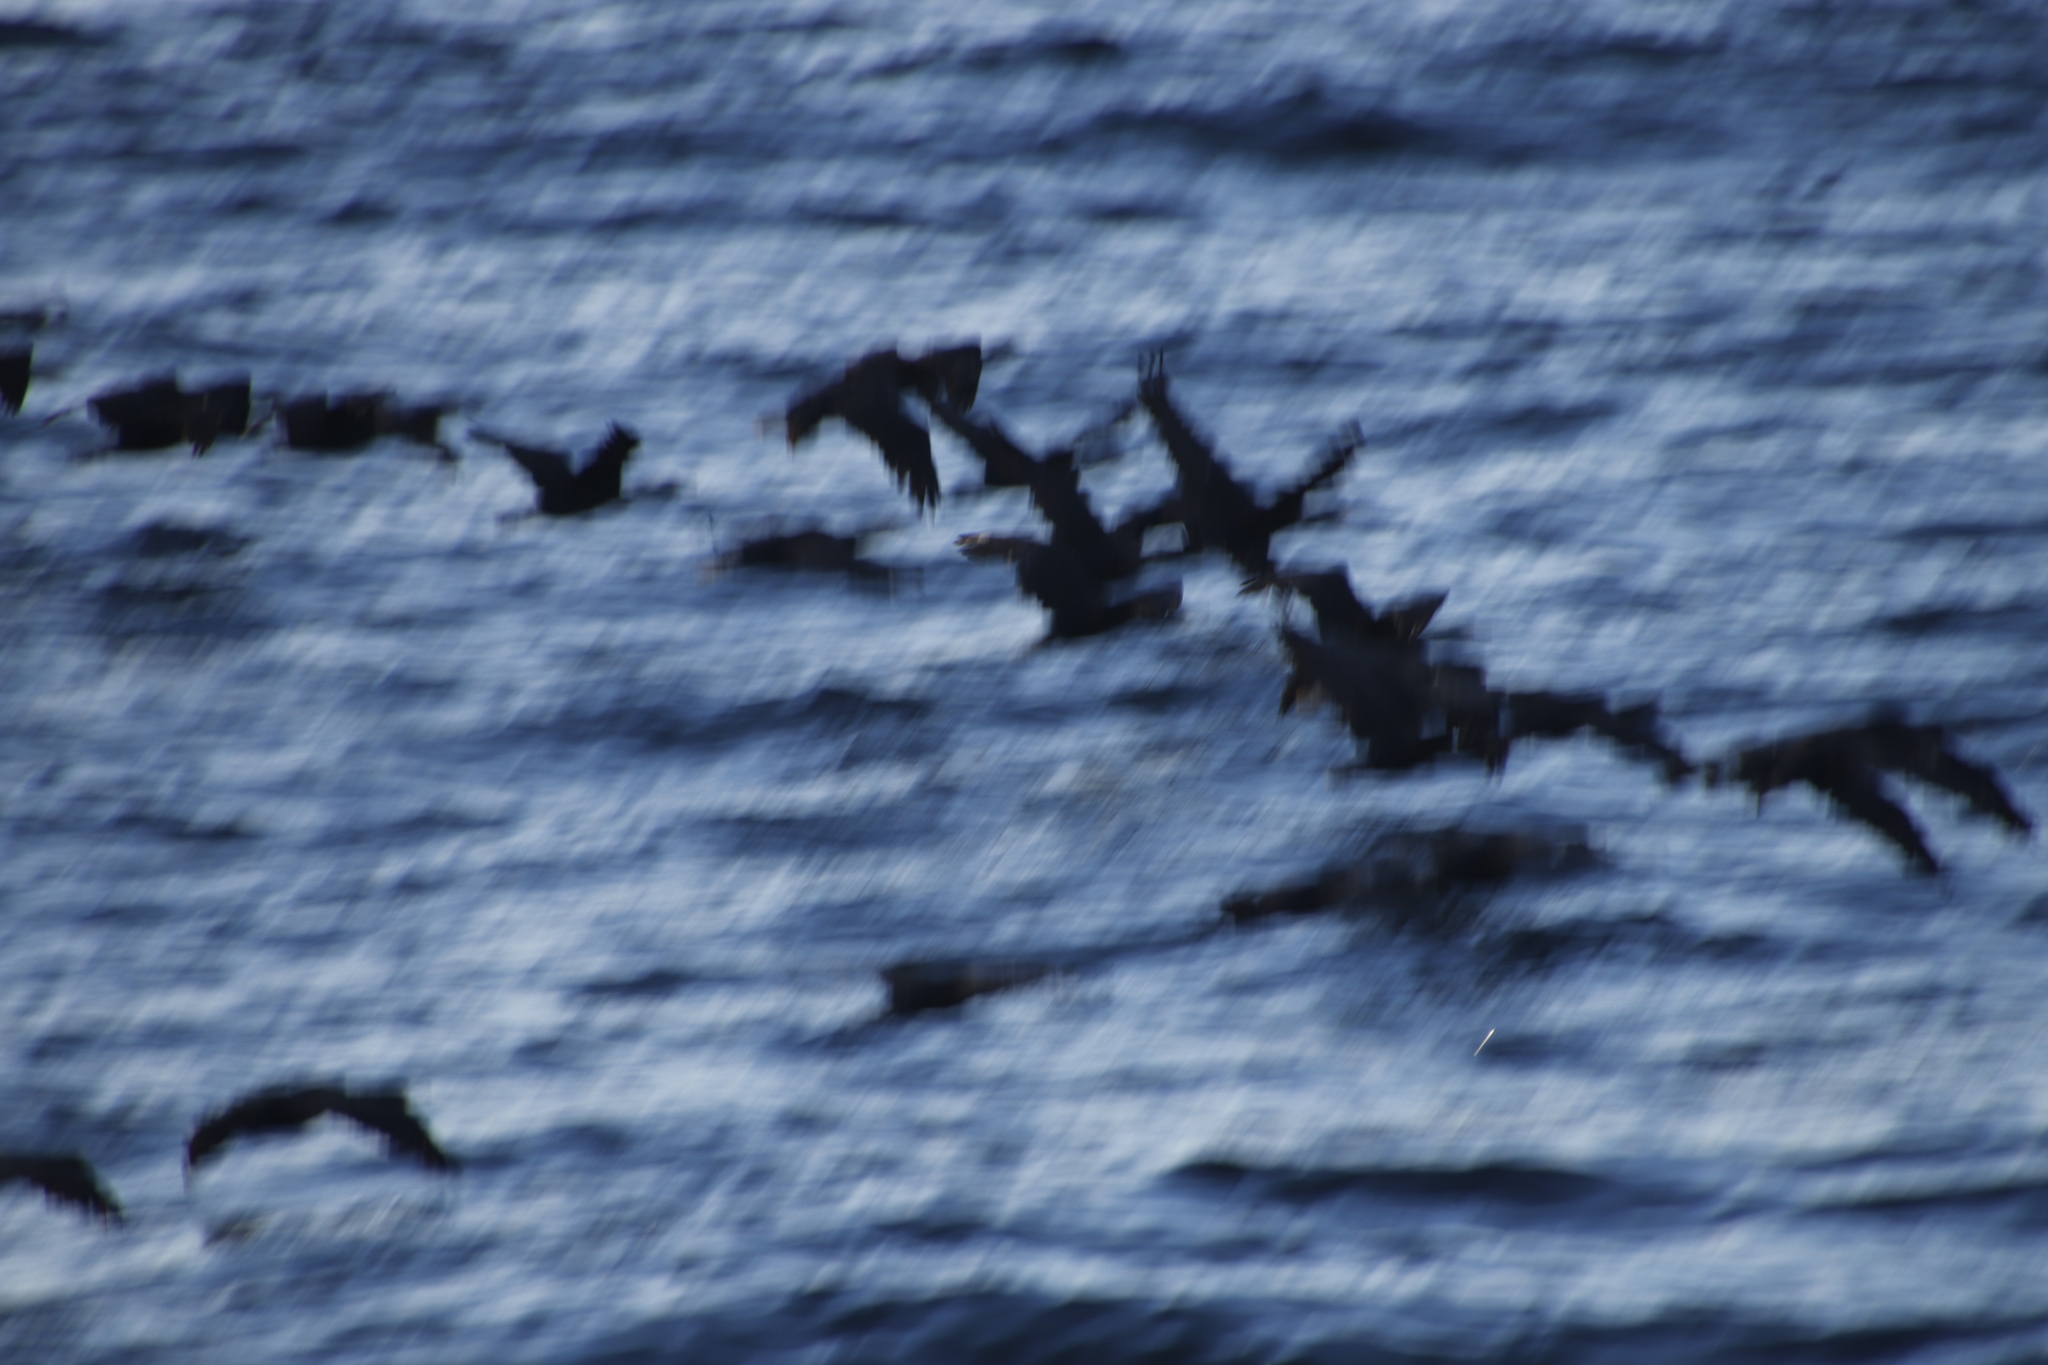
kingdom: Animalia
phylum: Chordata
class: Aves
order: Suliformes
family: Phalacrocoracidae
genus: Phalacrocorax
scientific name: Phalacrocorax capensis
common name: Cape cormorant
